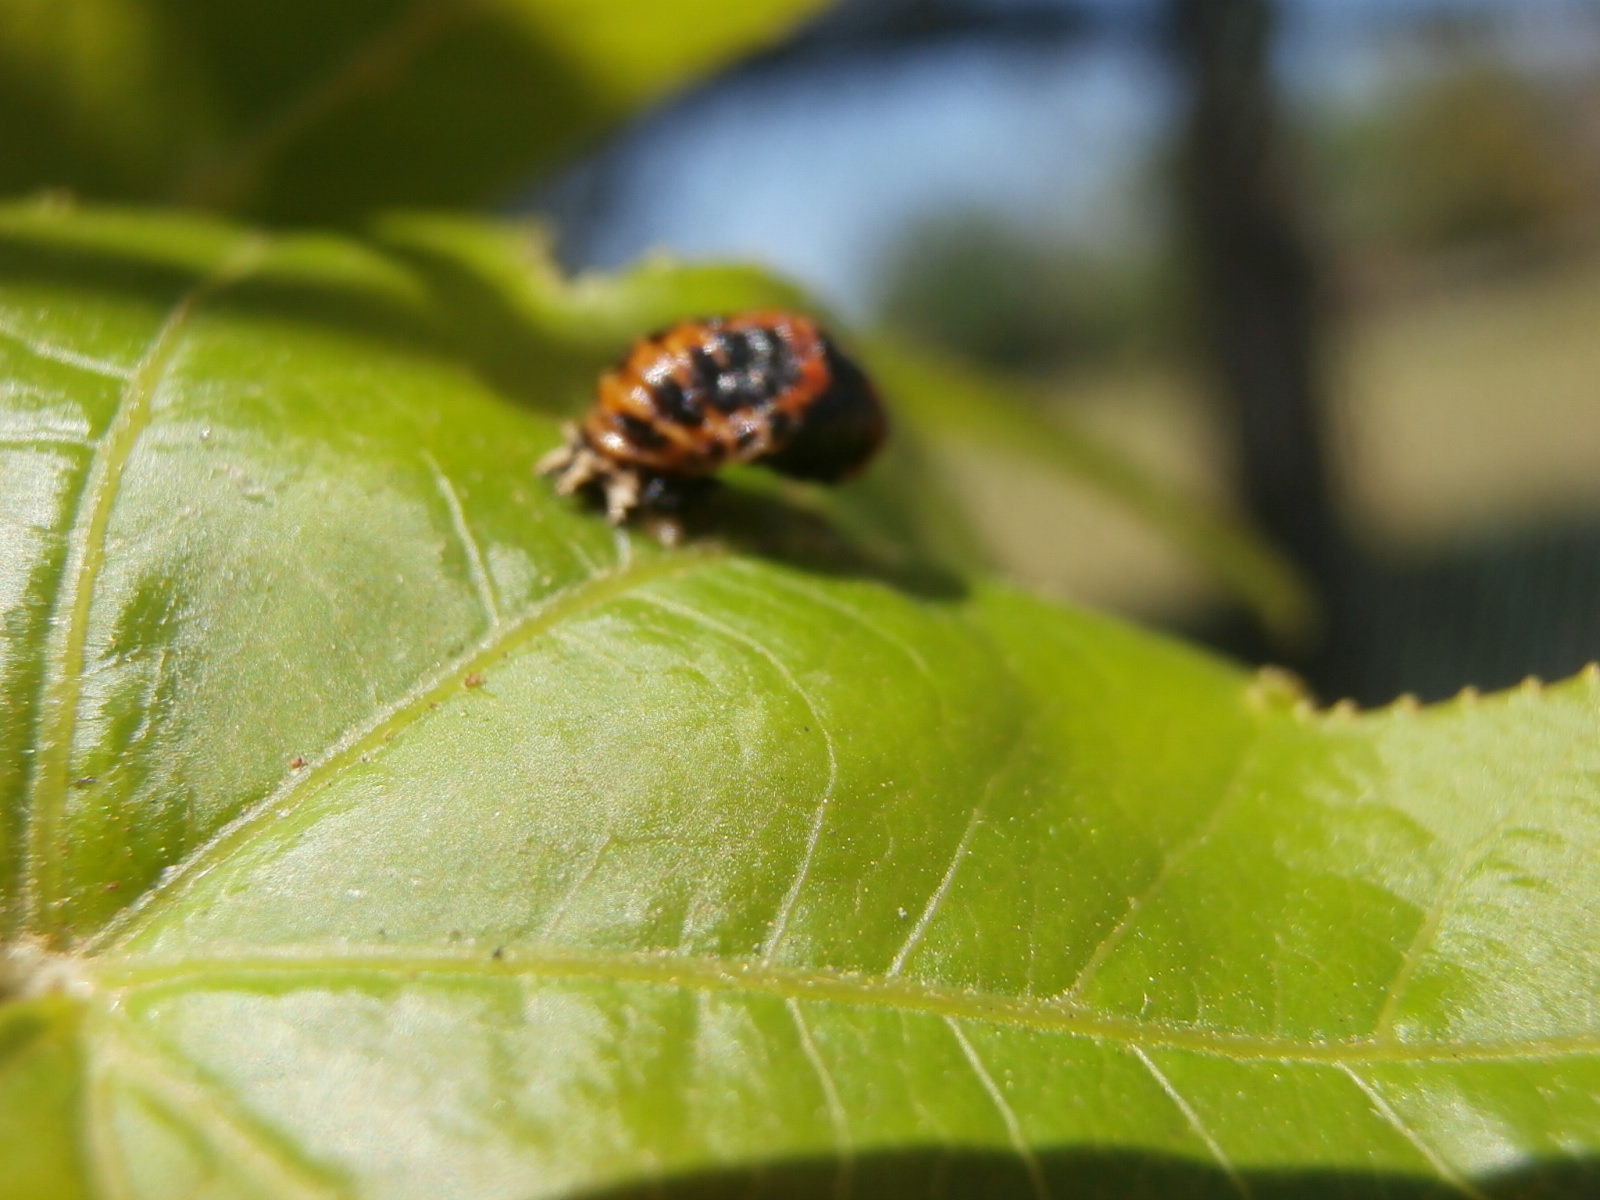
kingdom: Animalia
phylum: Arthropoda
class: Insecta
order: Coleoptera
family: Coccinellidae
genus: Harmonia
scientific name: Harmonia axyridis
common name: Harlequin ladybird
